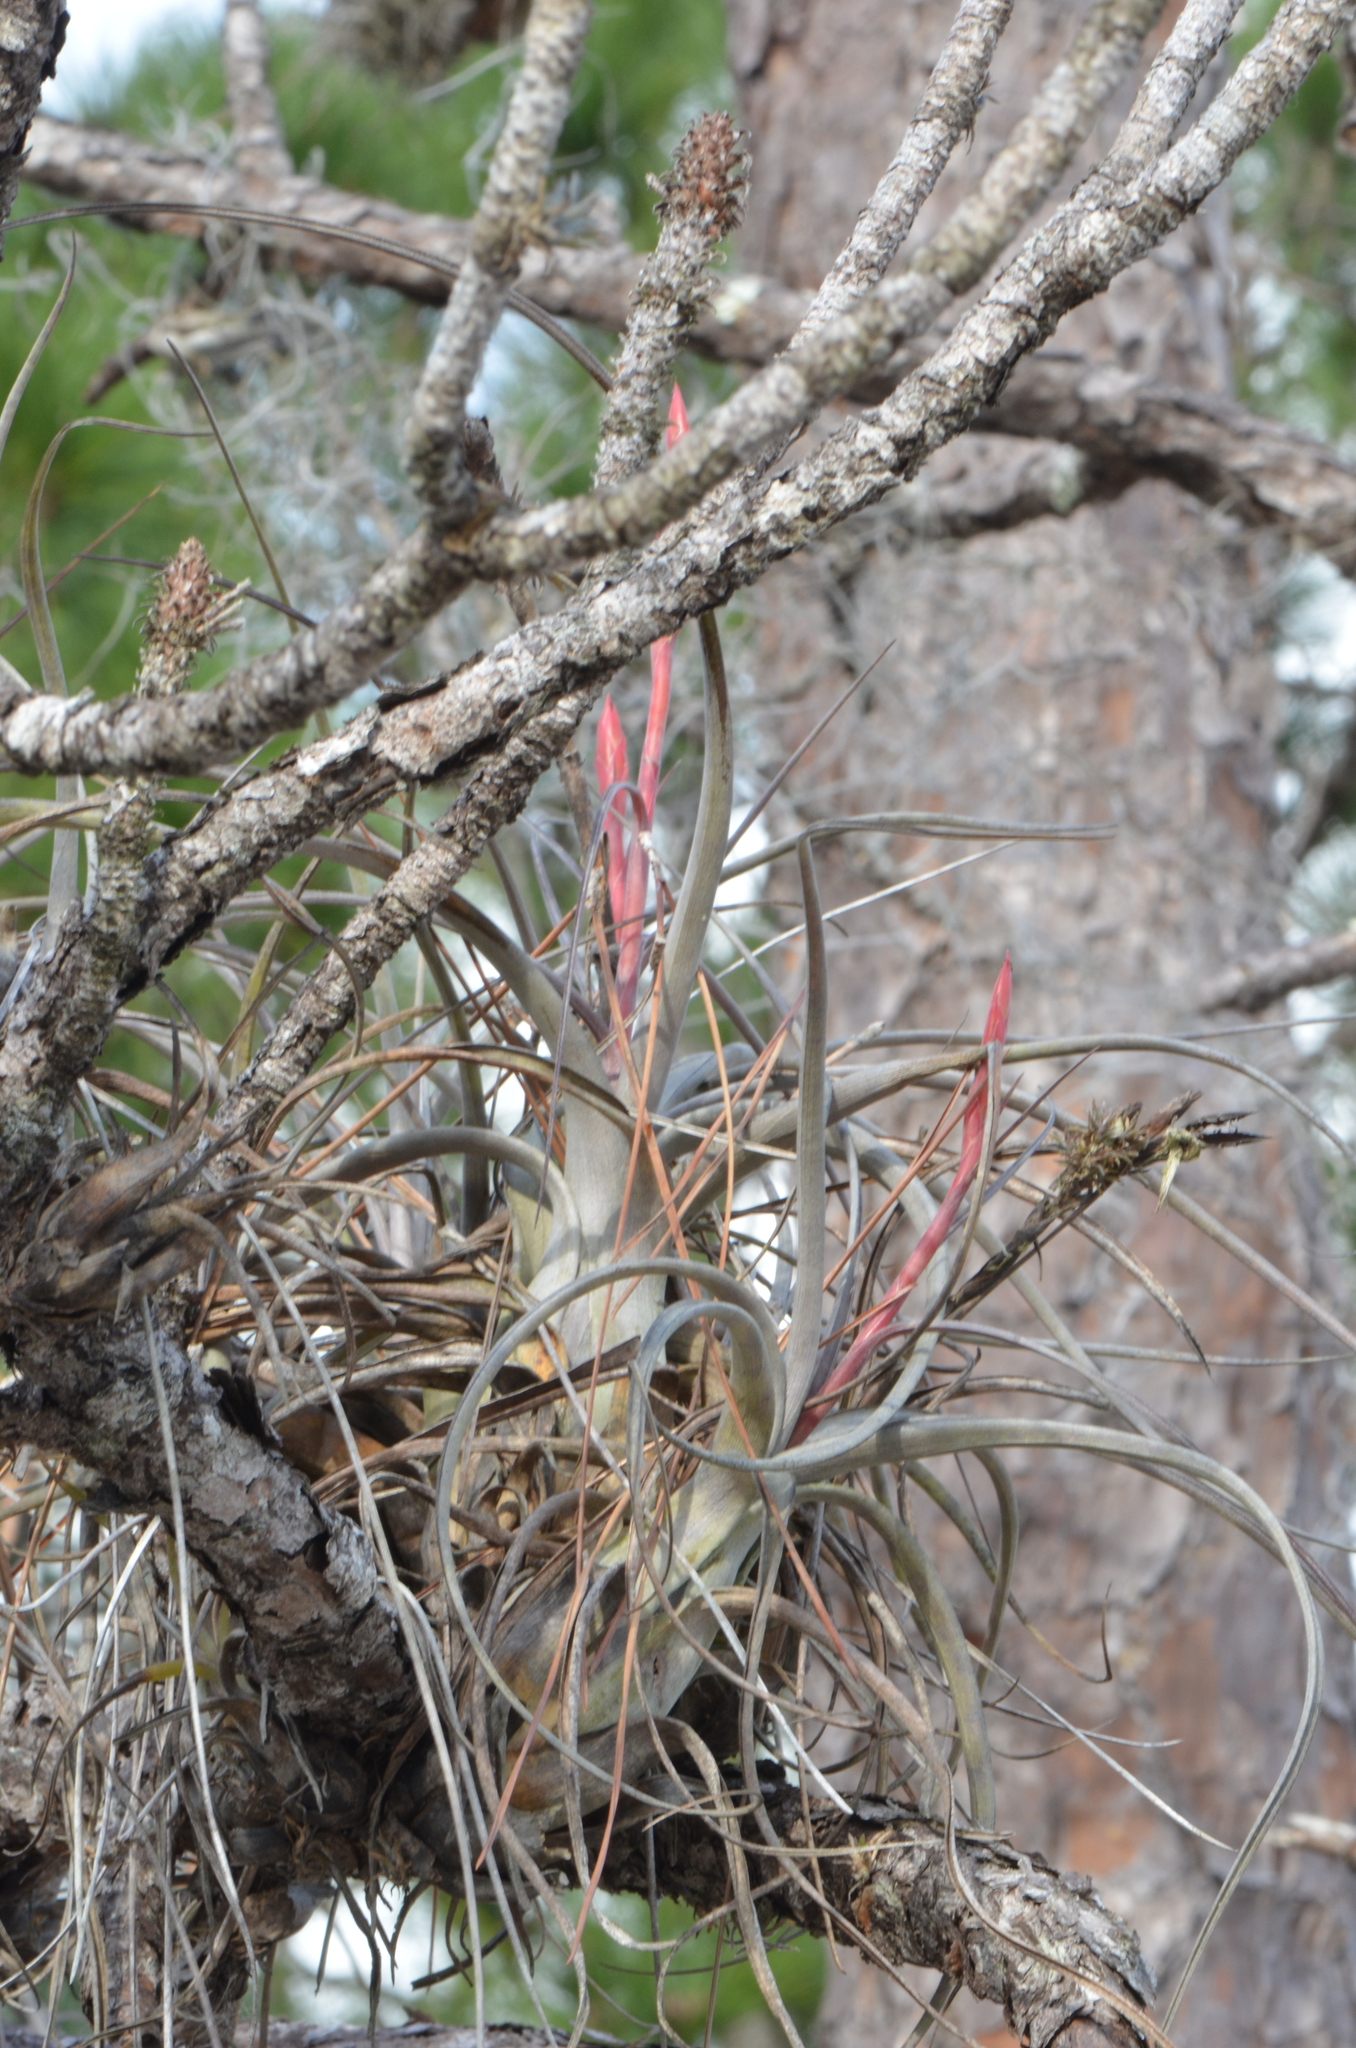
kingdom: Plantae
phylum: Tracheophyta
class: Liliopsida
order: Poales
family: Bromeliaceae
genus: Tillandsia
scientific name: Tillandsia balbisiana
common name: Northern needleleaf
